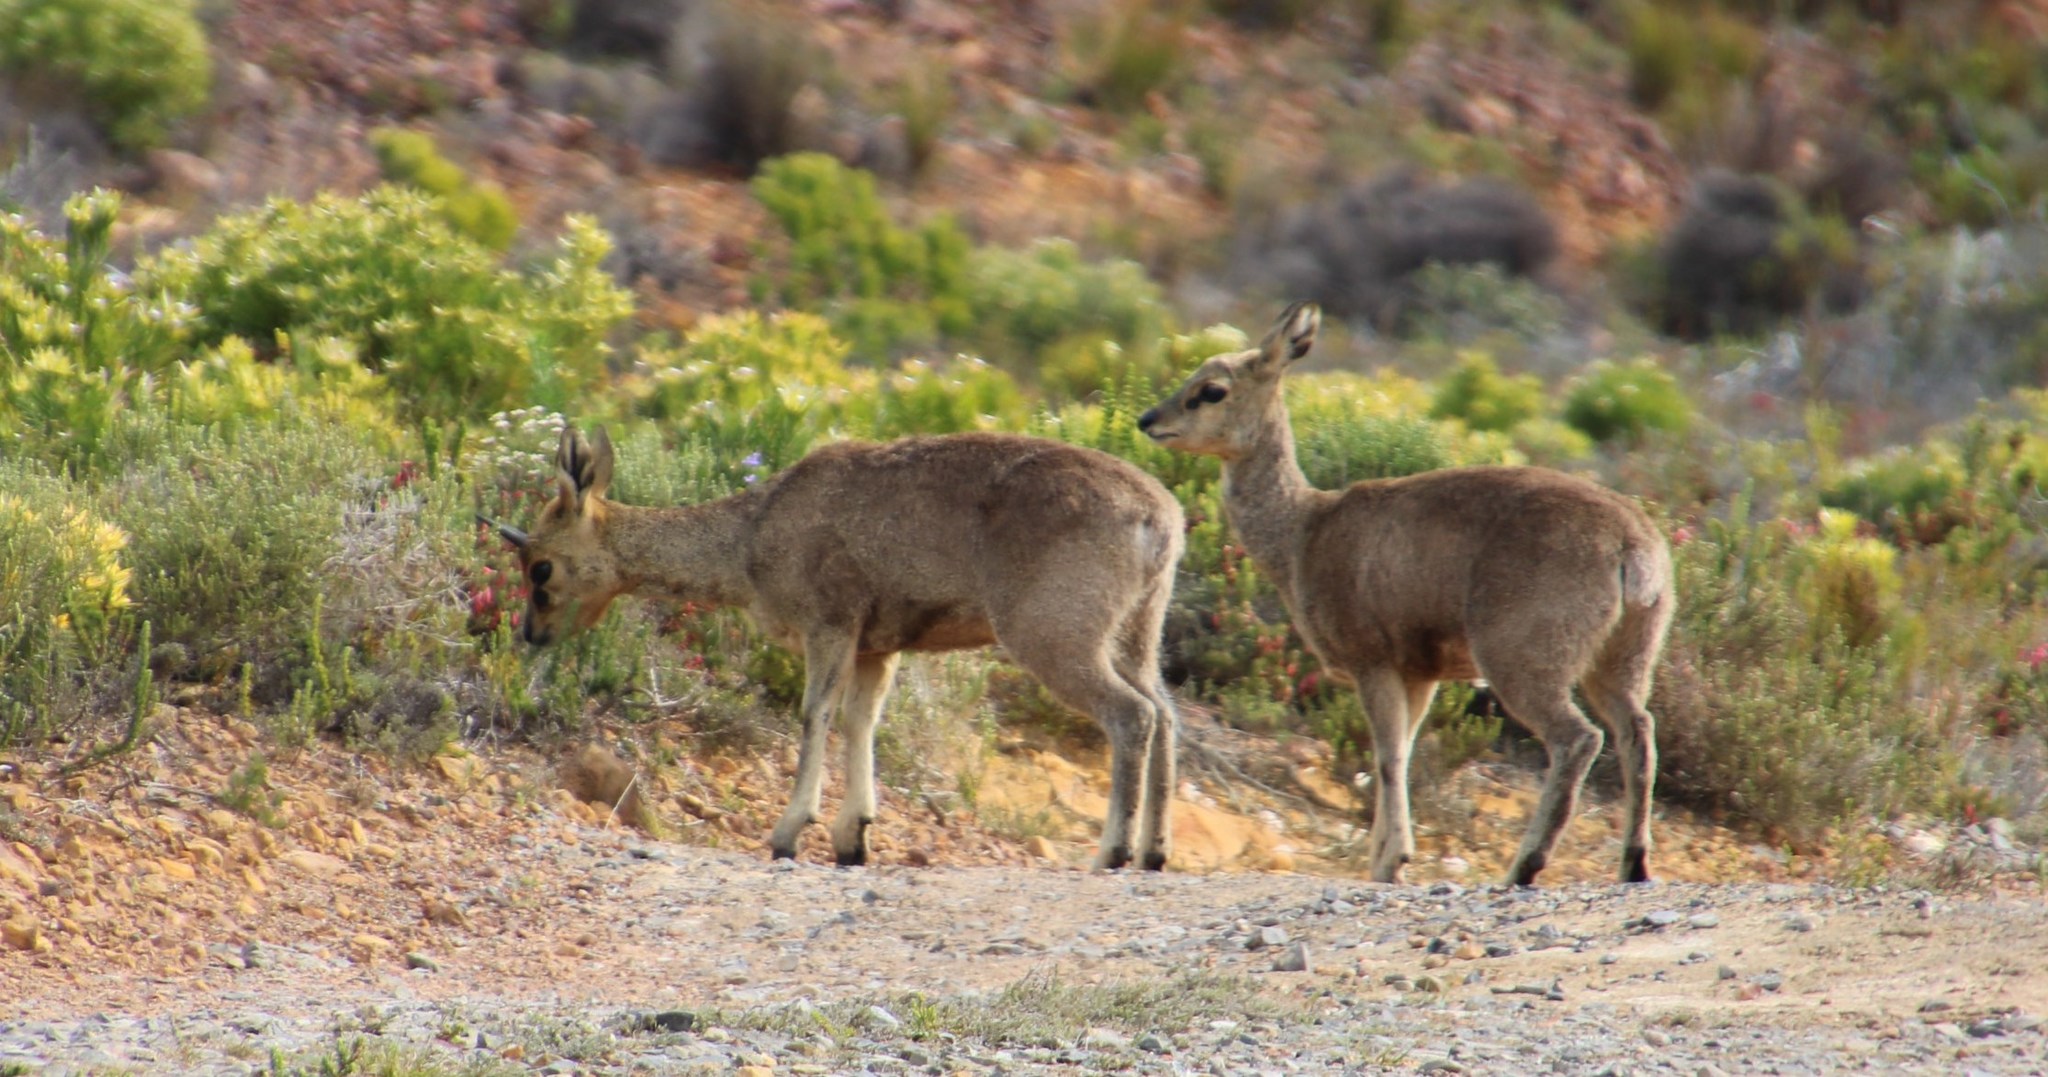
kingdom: Animalia
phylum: Chordata
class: Mammalia
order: Artiodactyla
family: Bovidae
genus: Oreotragus
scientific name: Oreotragus oreotragus
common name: Klipspringer
